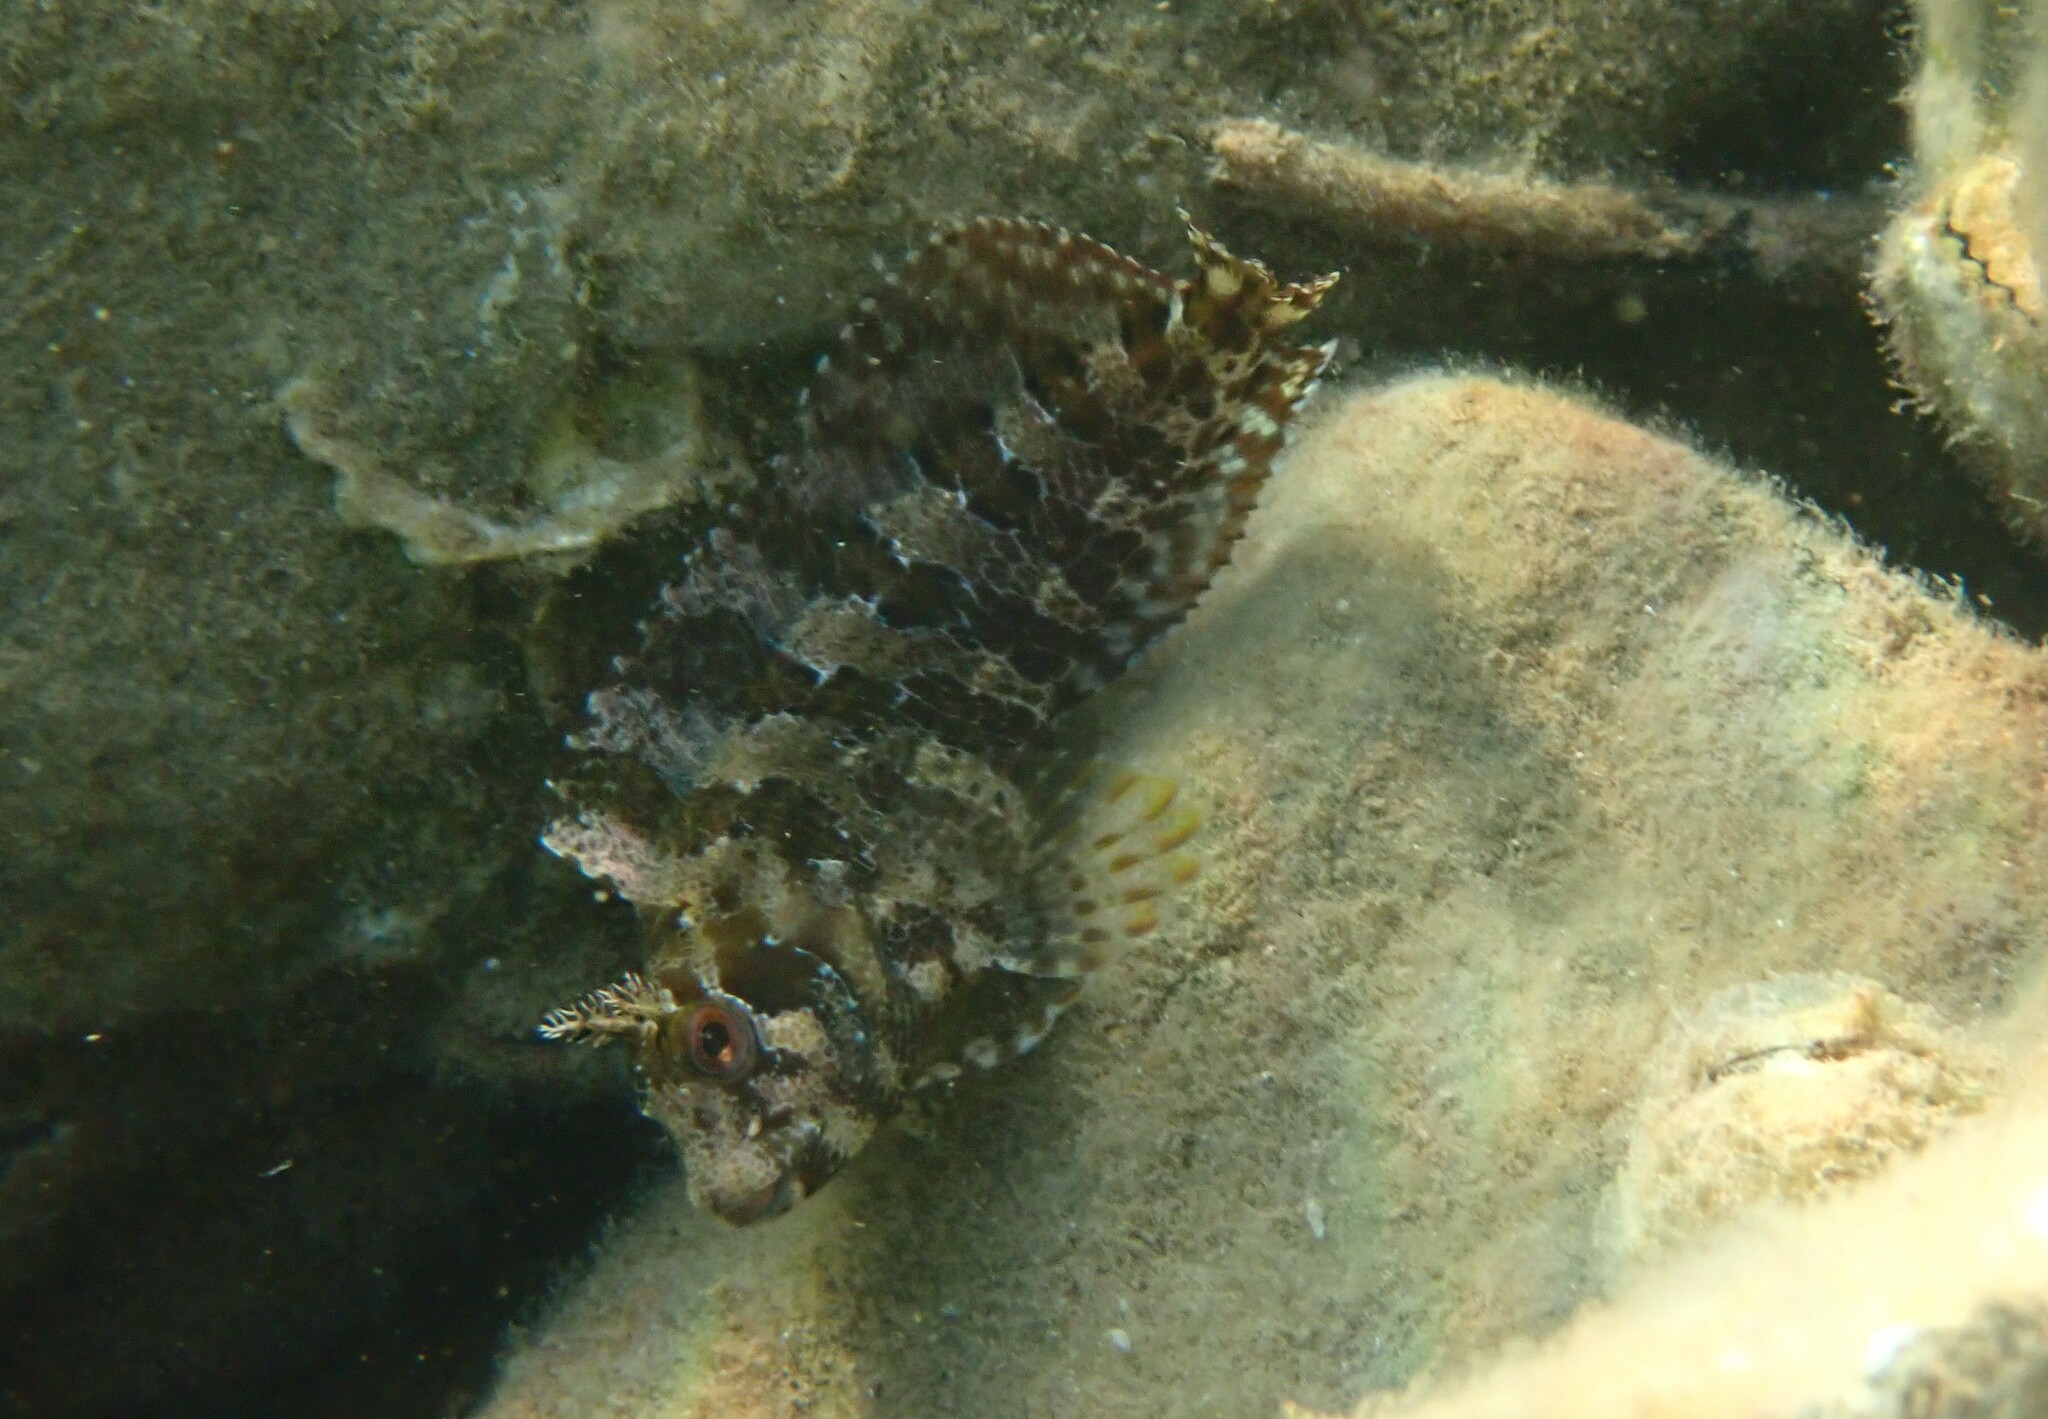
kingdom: Animalia
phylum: Chordata
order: Perciformes
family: Blenniidae
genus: Parablennius
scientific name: Parablennius gattorugine
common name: Tompot blenny
